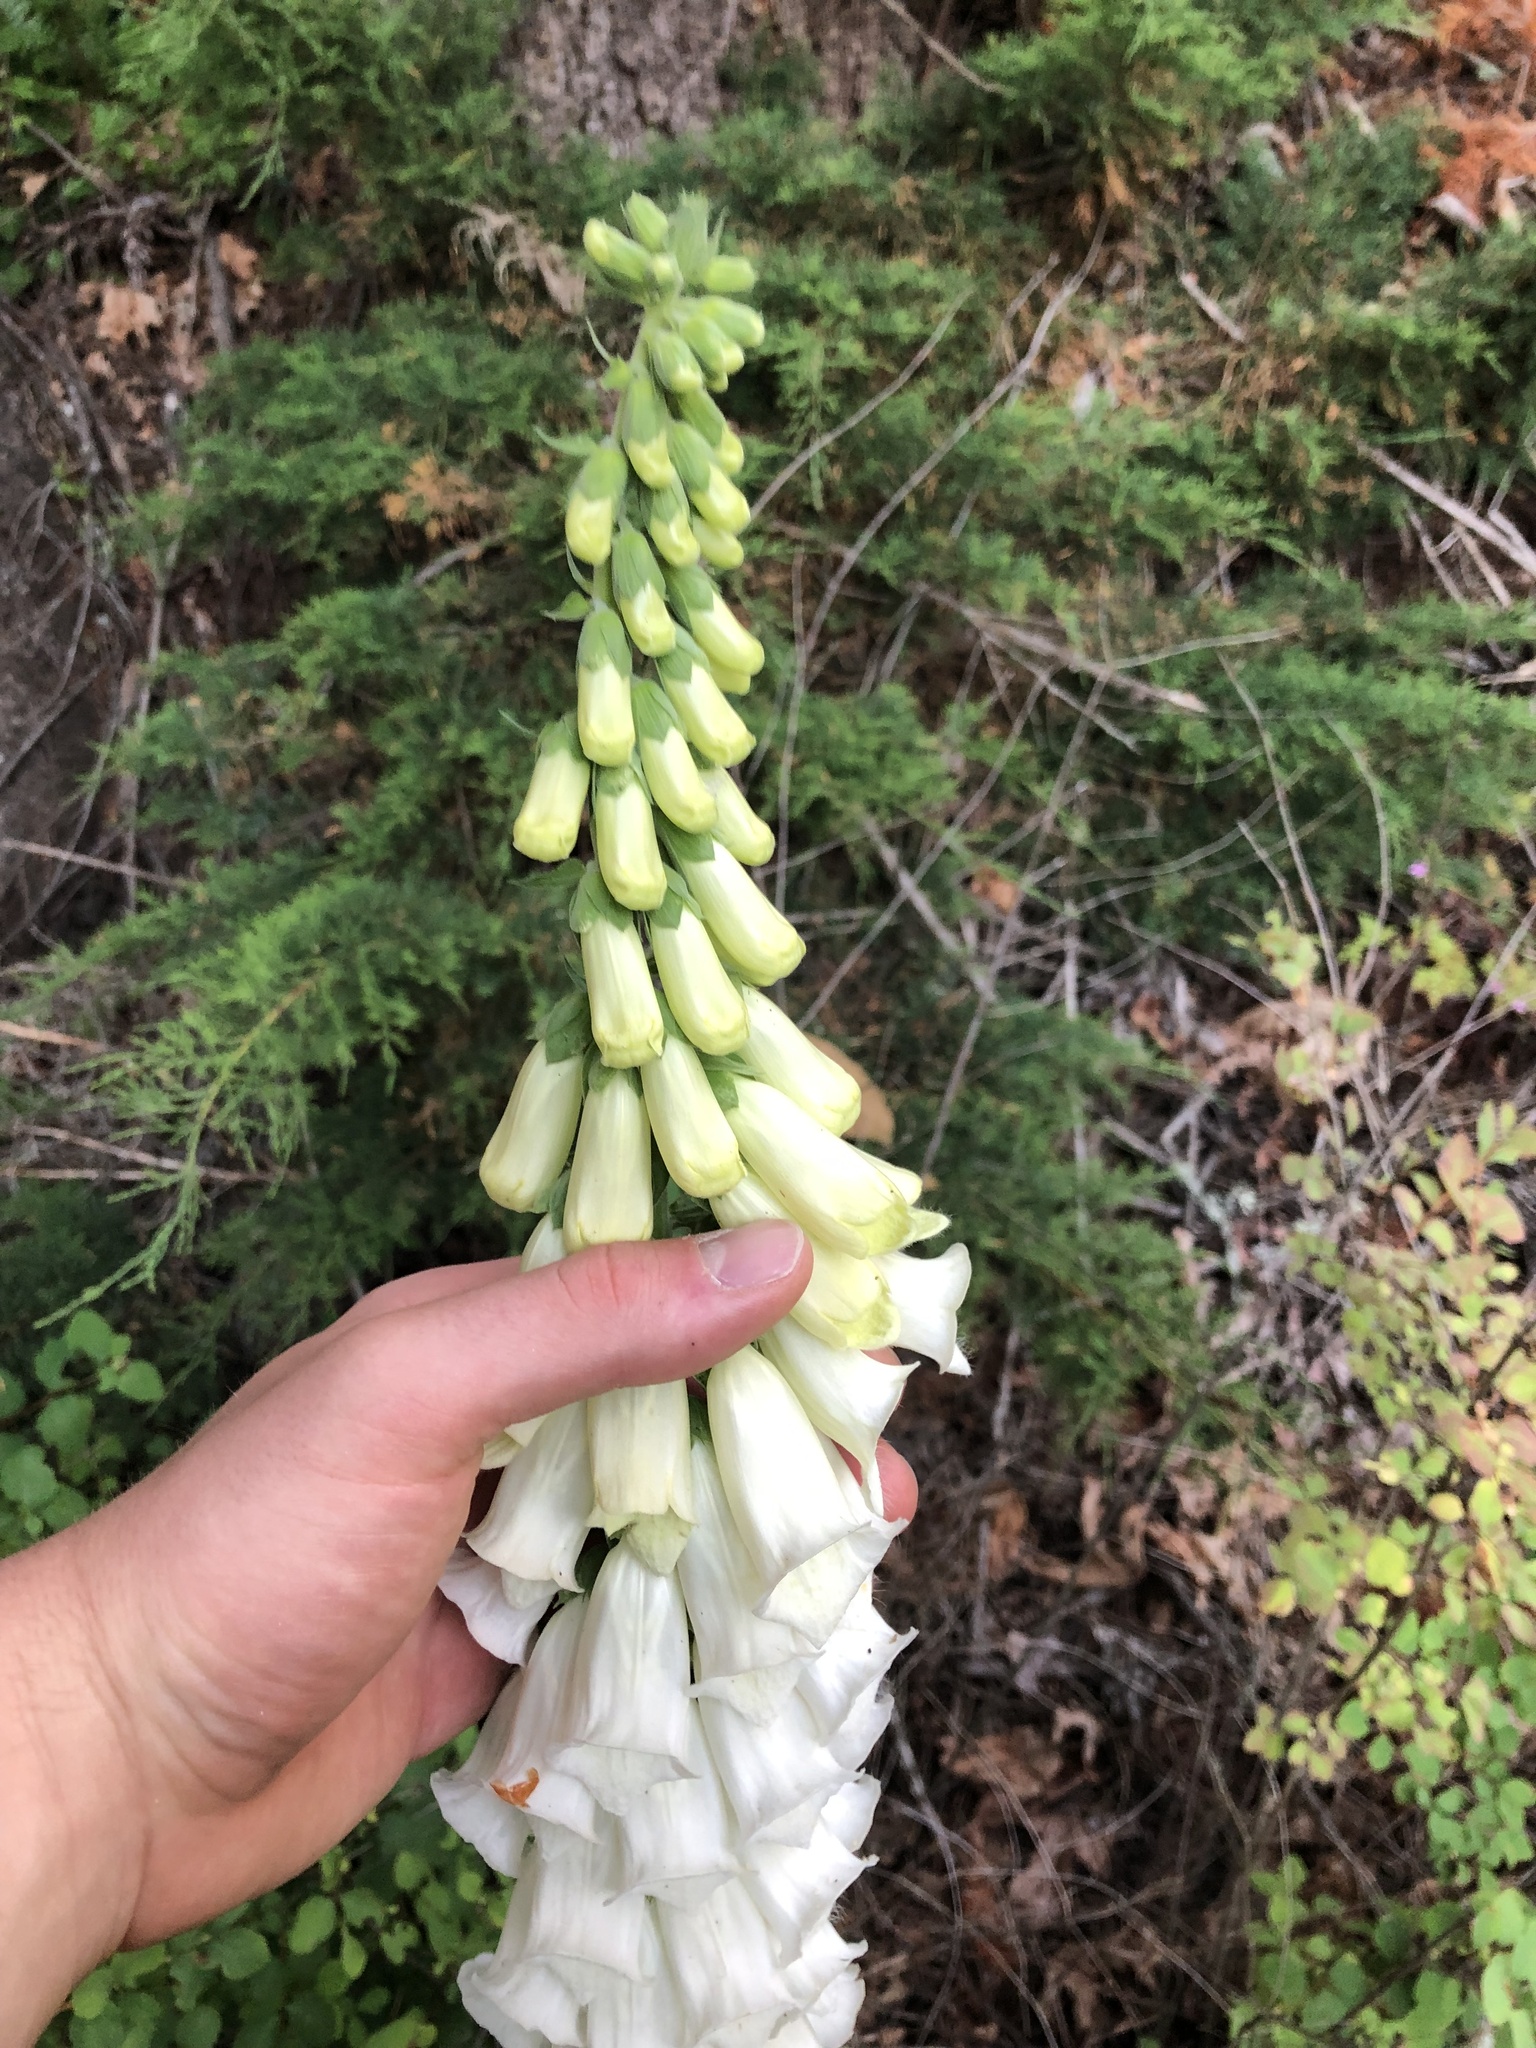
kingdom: Plantae
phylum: Tracheophyta
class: Magnoliopsida
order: Lamiales
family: Plantaginaceae
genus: Digitalis
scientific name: Digitalis purpurea
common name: Foxglove
